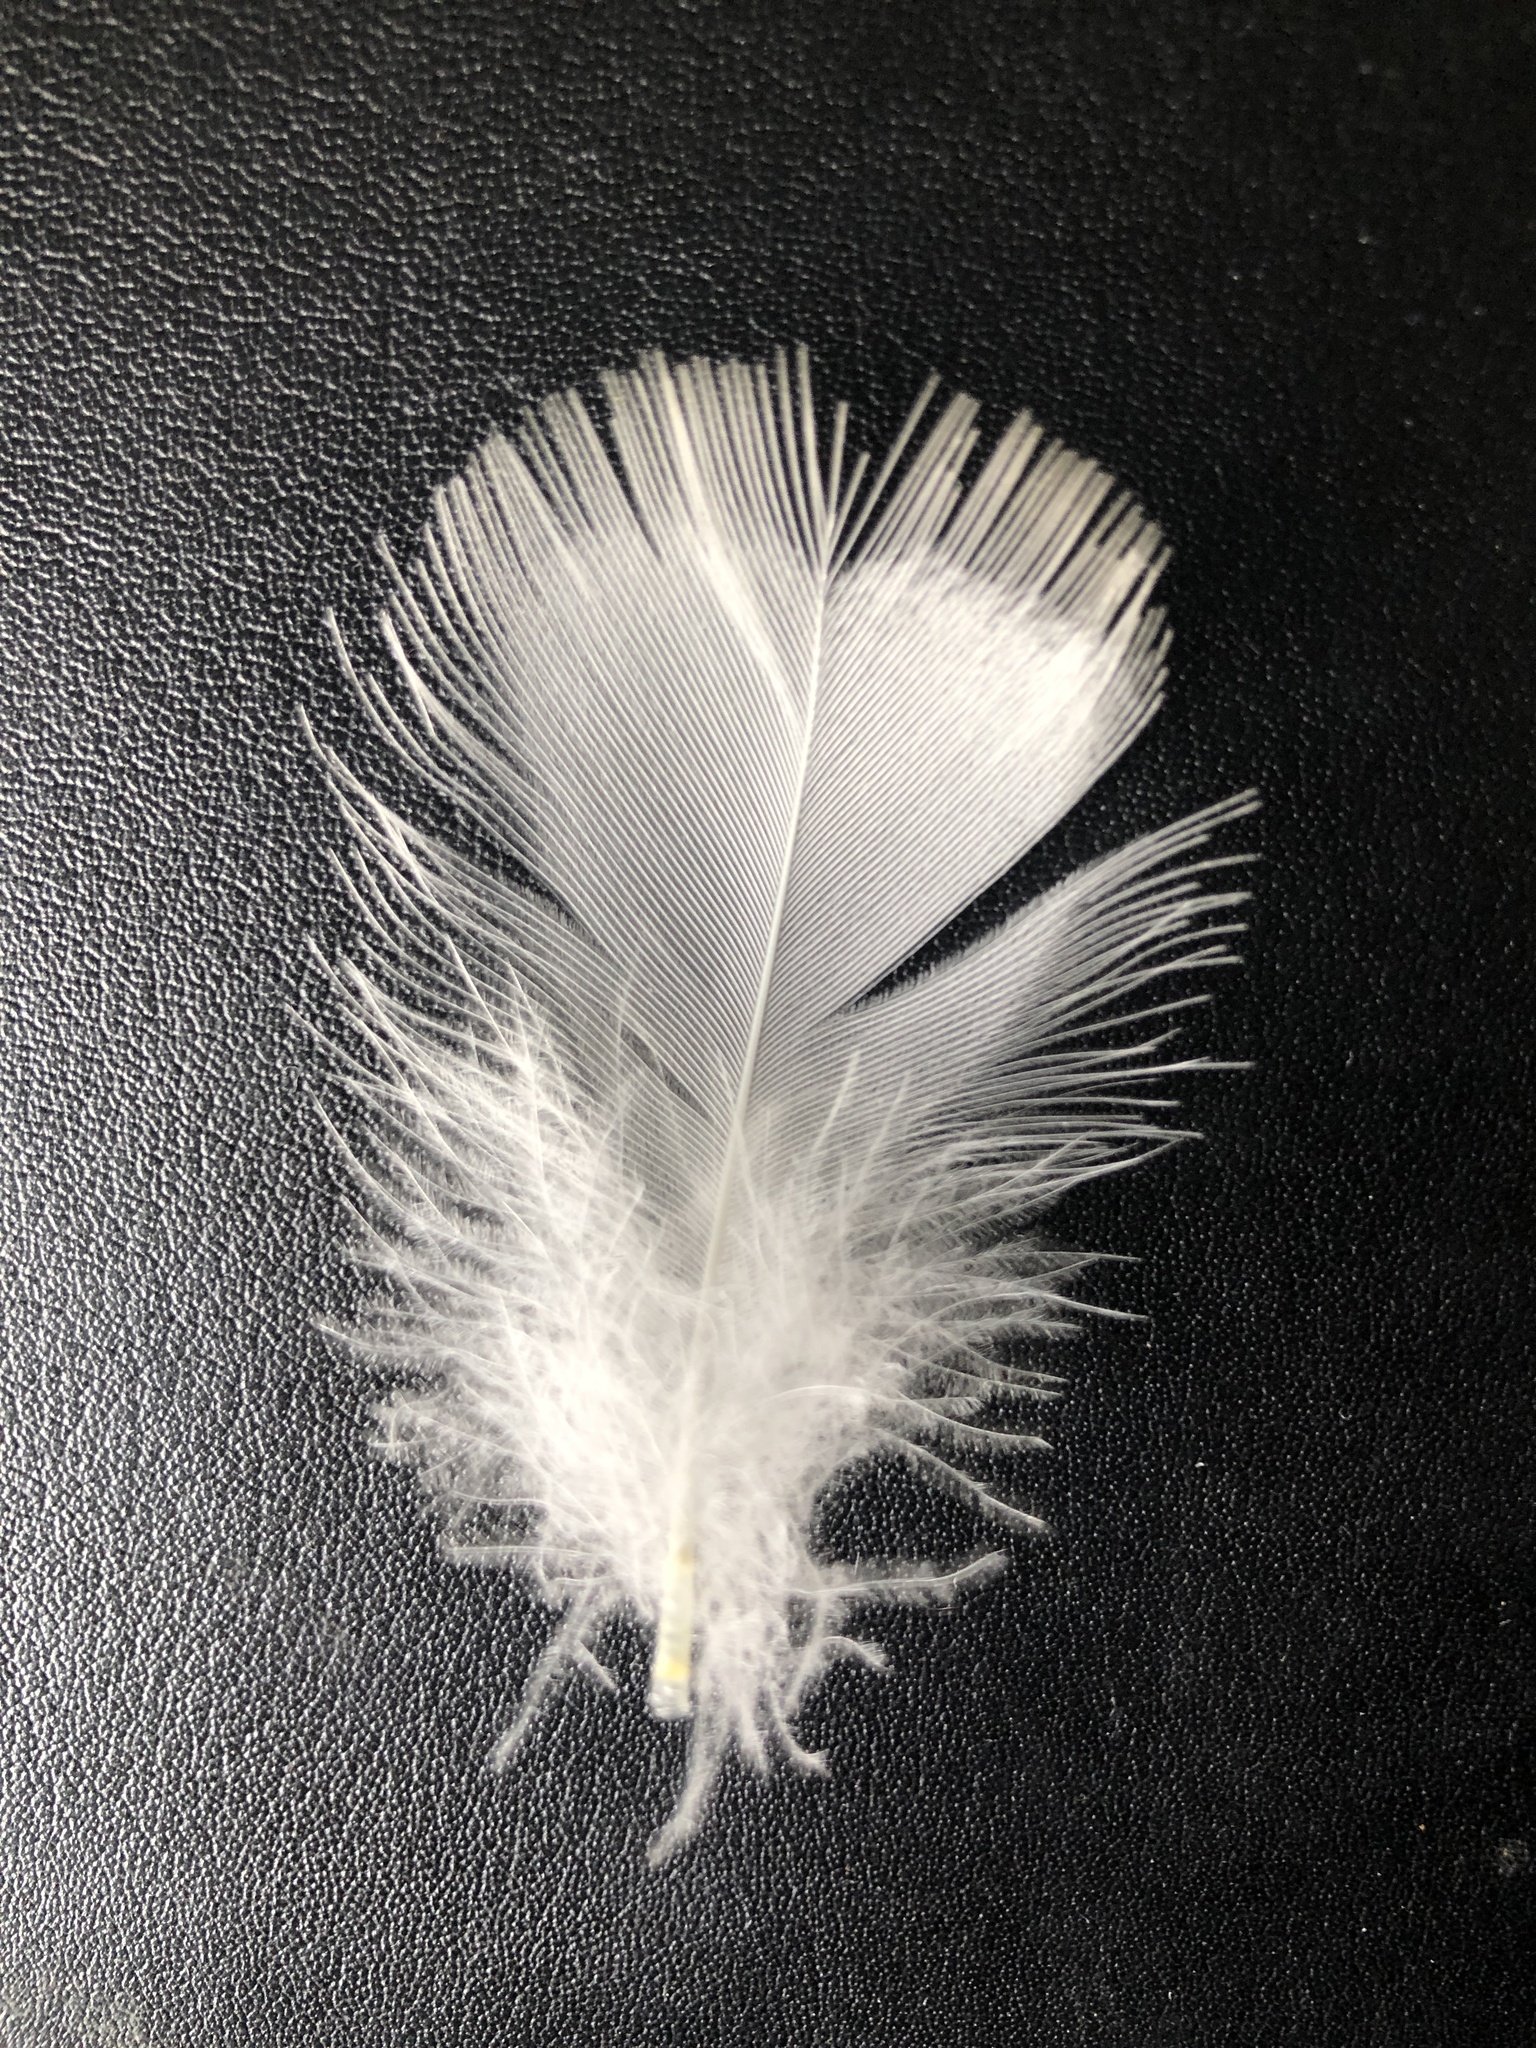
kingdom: Animalia
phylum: Chordata
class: Aves
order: Anseriformes
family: Anatidae
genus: Cairina
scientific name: Cairina moschata
